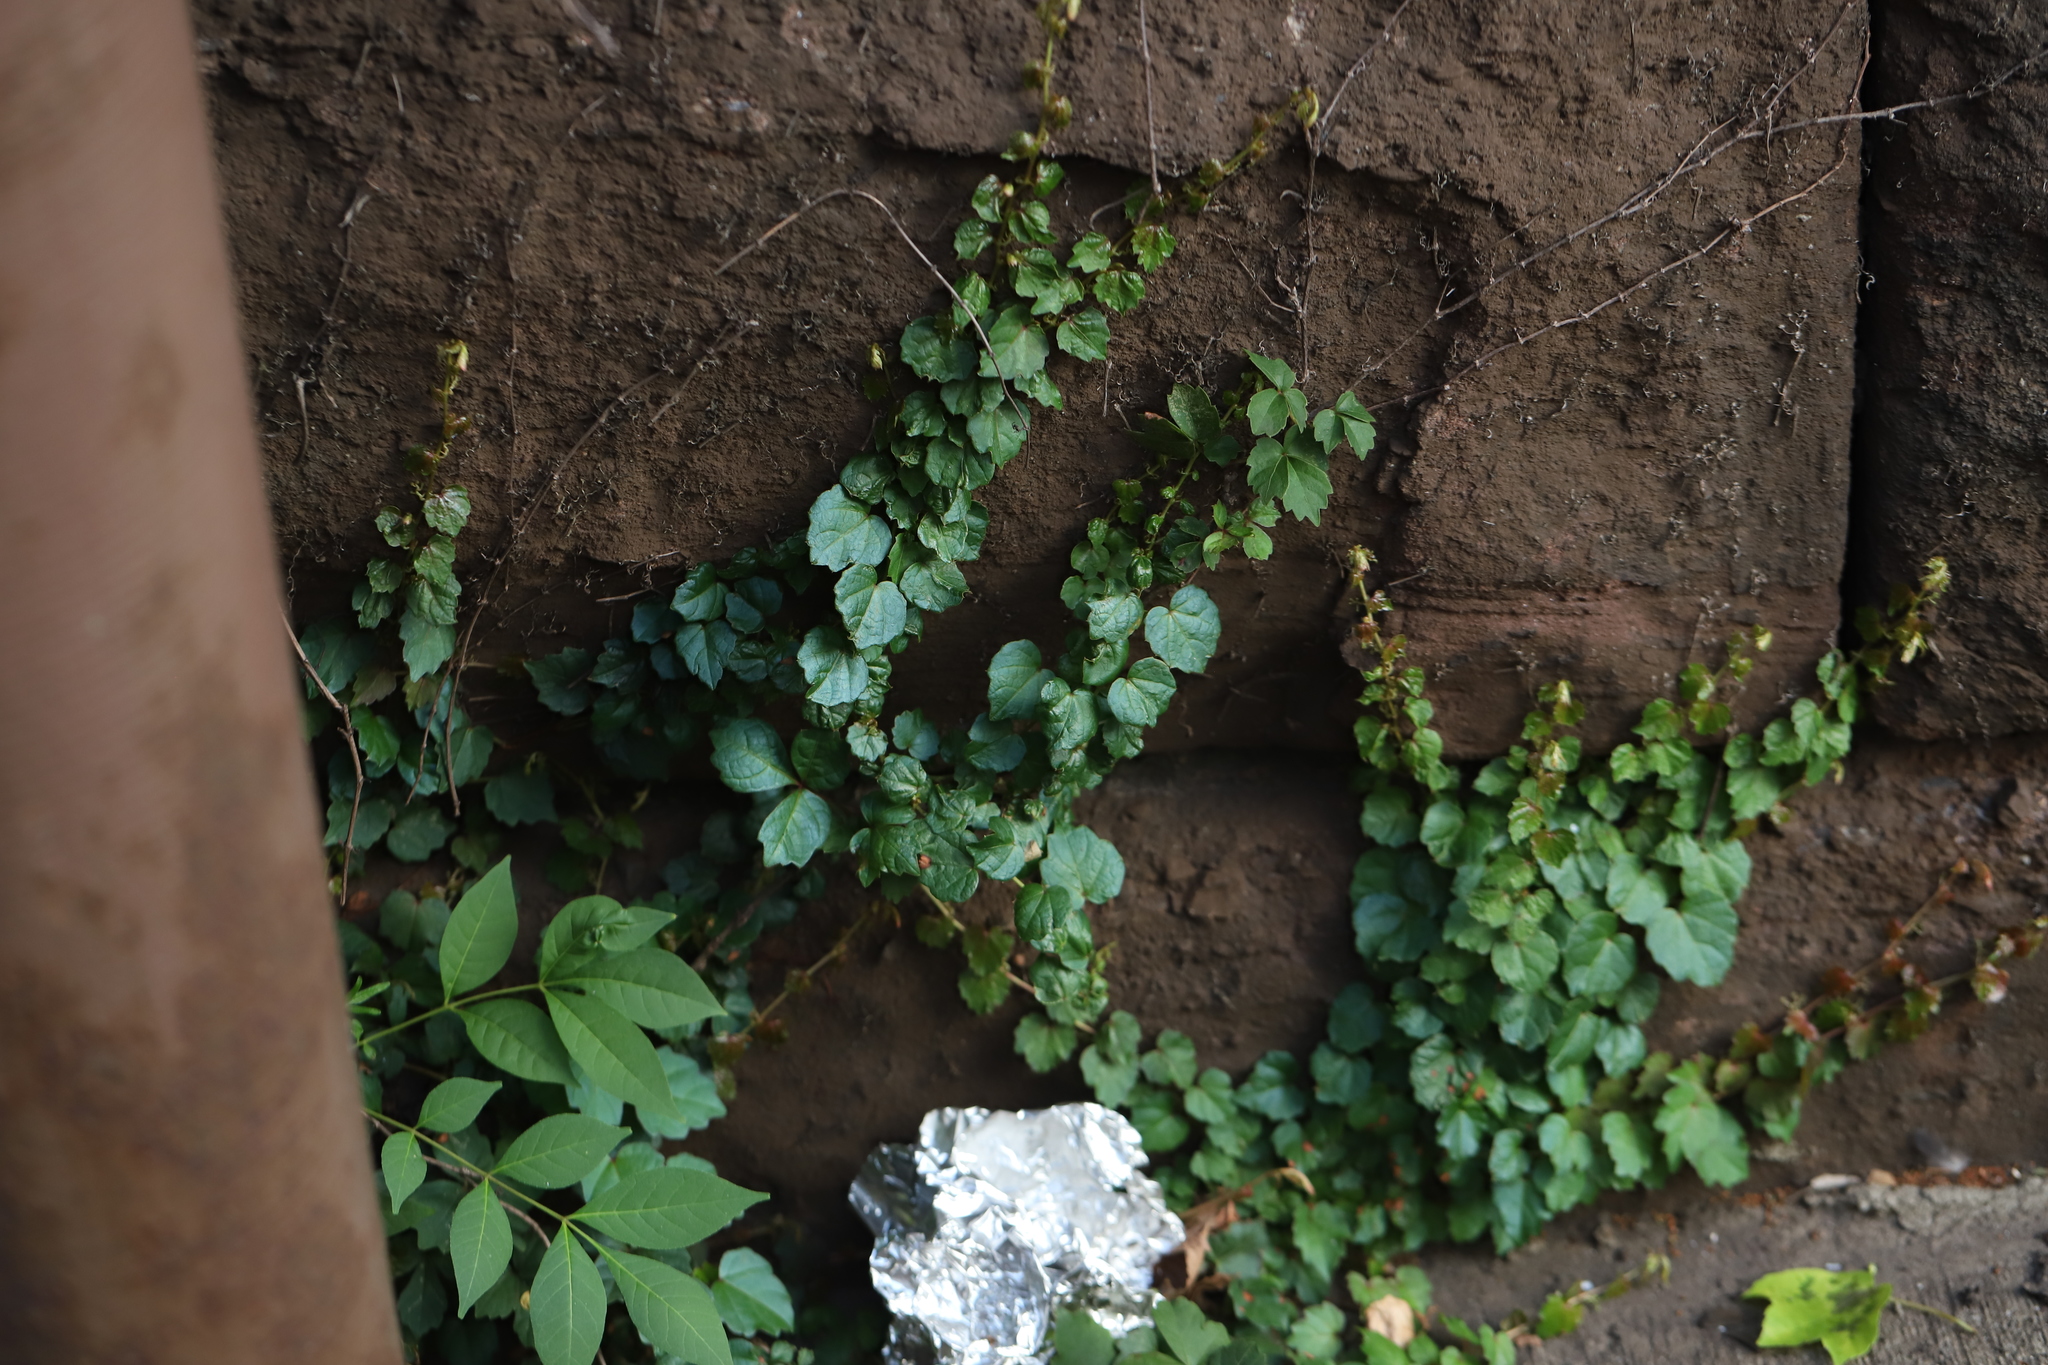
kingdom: Plantae
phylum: Tracheophyta
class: Magnoliopsida
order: Vitales
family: Vitaceae
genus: Parthenocissus
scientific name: Parthenocissus tricuspidata
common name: Boston ivy
